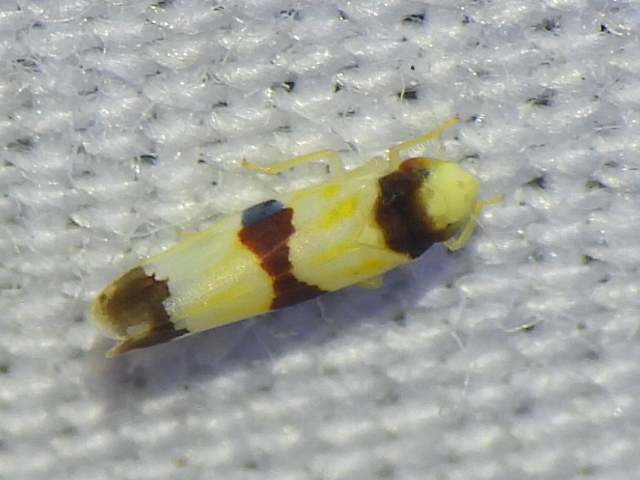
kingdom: Animalia
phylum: Arthropoda
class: Insecta
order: Hemiptera
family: Cicadellidae
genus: Erythroneura
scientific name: Erythroneura tricincta
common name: The threebanded grape leafhopper
